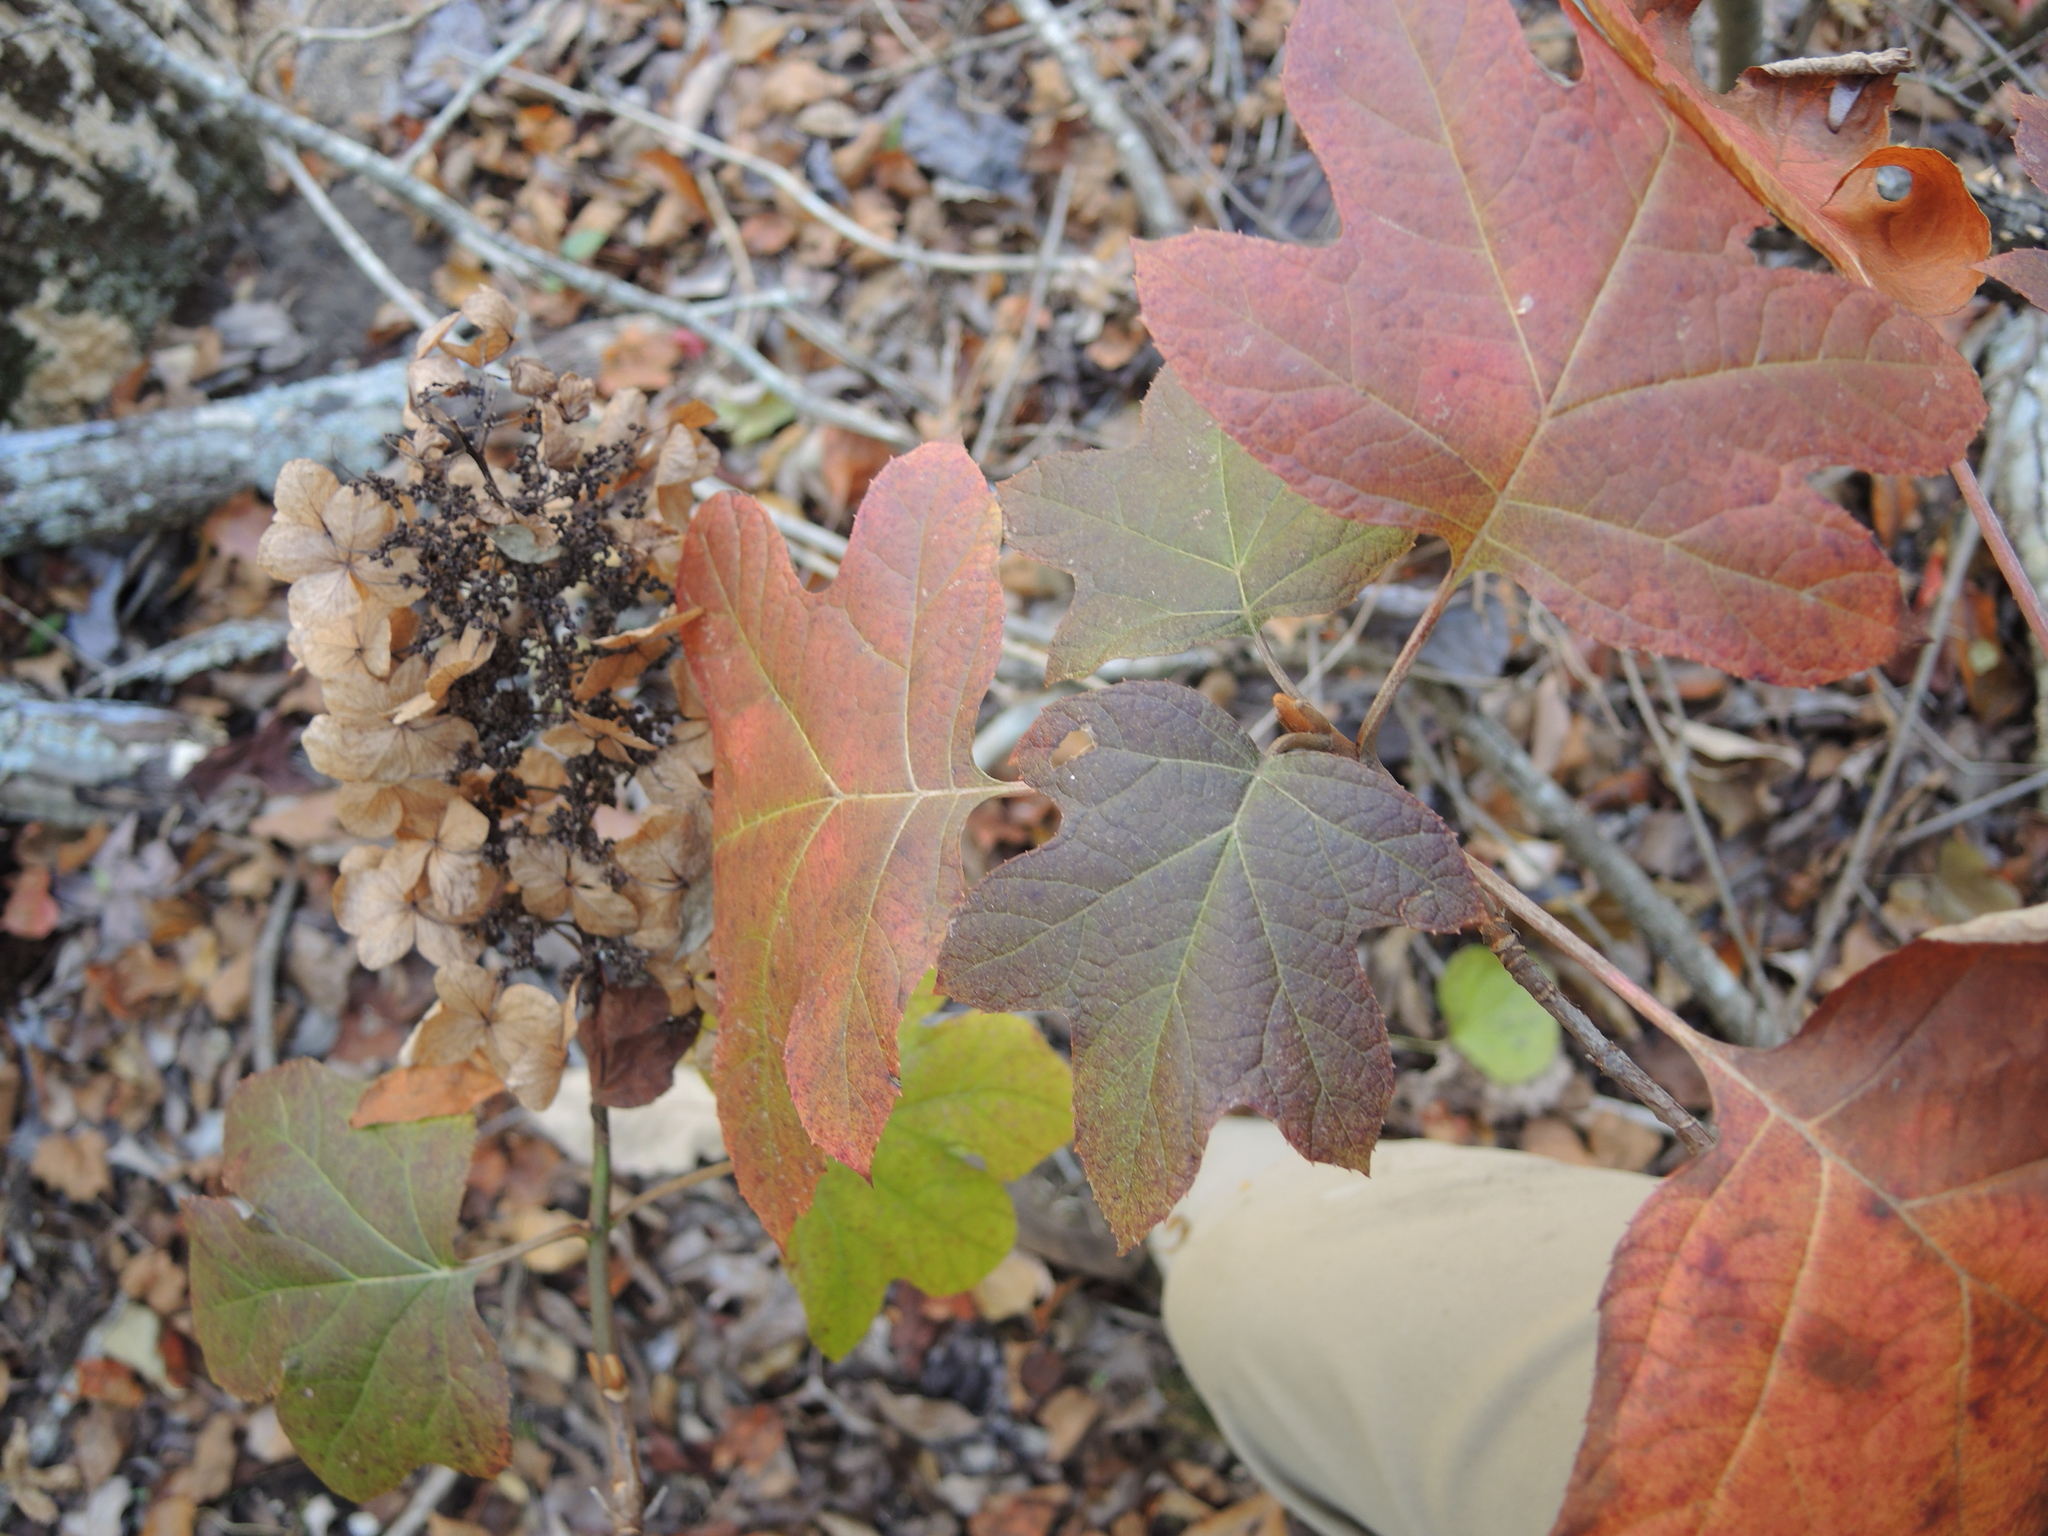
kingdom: Plantae
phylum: Tracheophyta
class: Magnoliopsida
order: Cornales
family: Hydrangeaceae
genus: Hydrangea
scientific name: Hydrangea quercifolia
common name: Oak-leaf hydrangea
